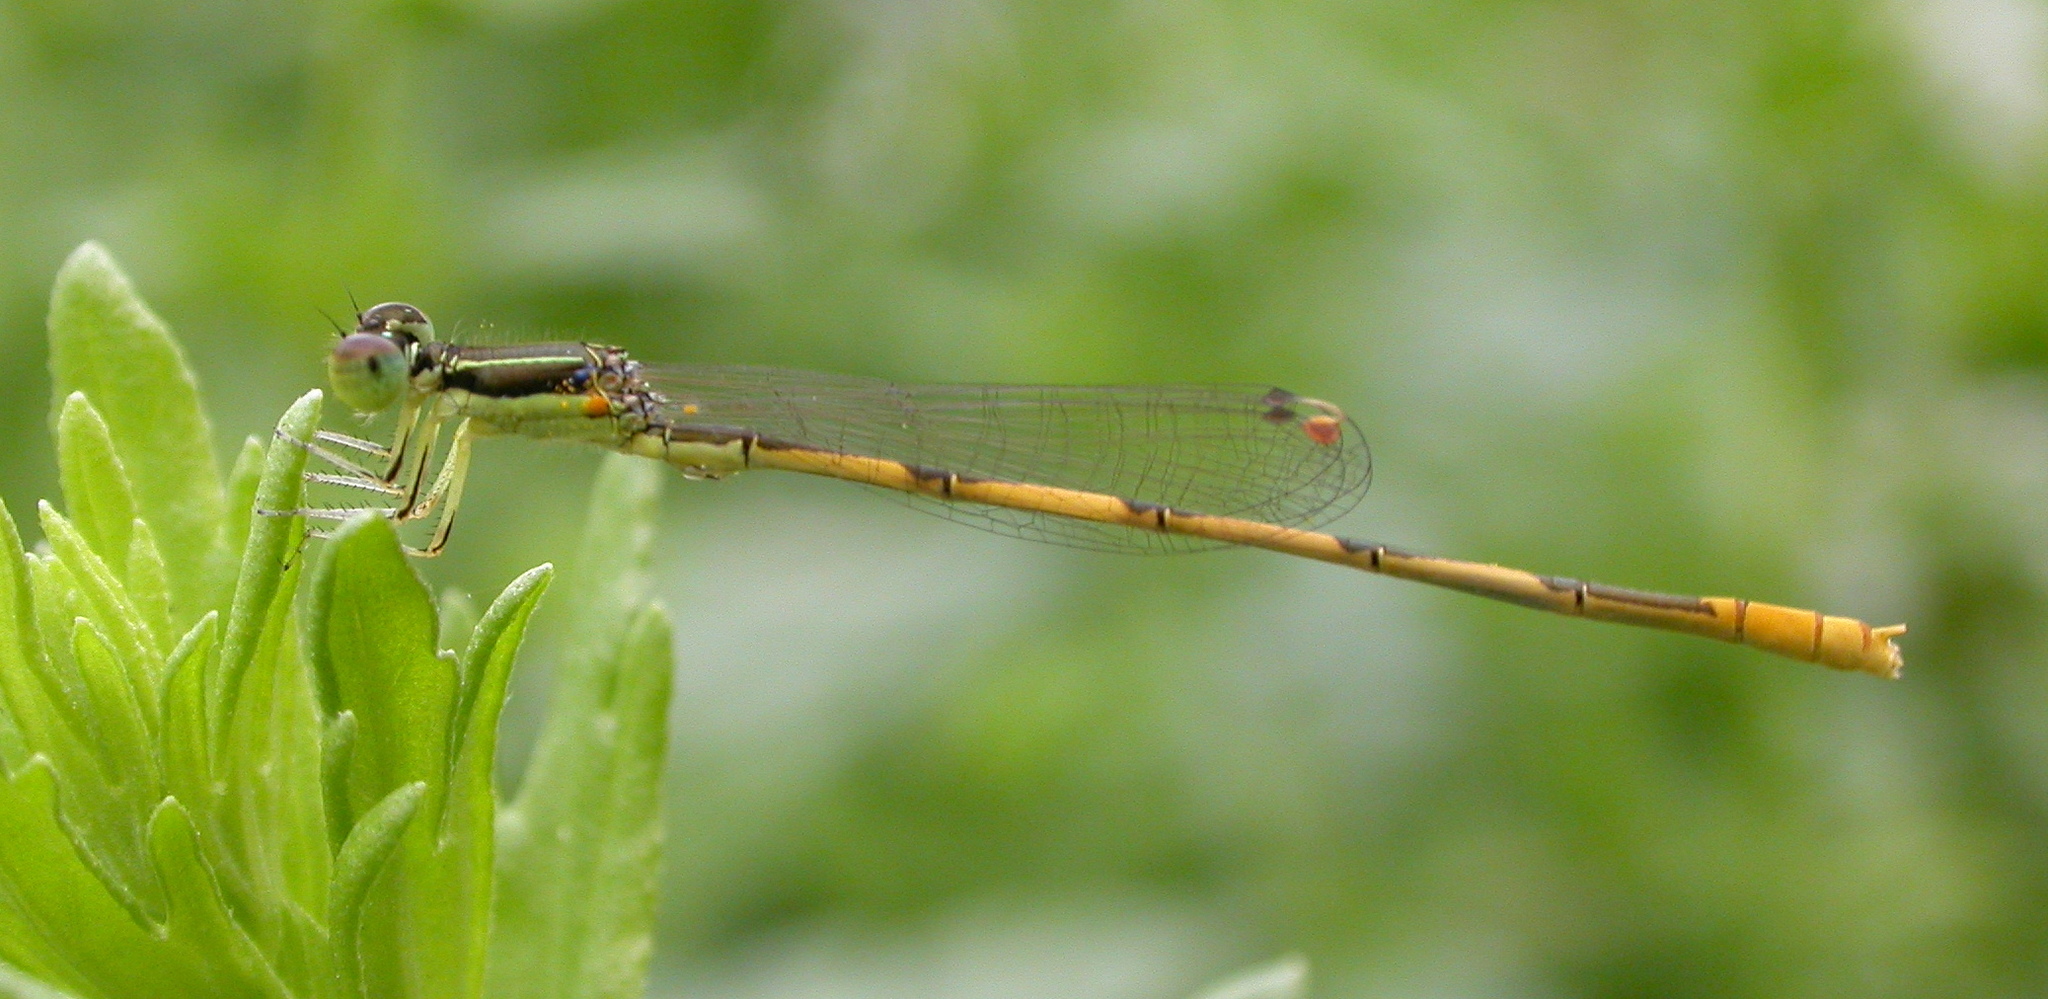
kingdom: Animalia
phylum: Arthropoda
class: Insecta
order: Odonata
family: Coenagrionidae
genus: Ischnura
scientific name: Ischnura hastata
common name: Citrine forktail
